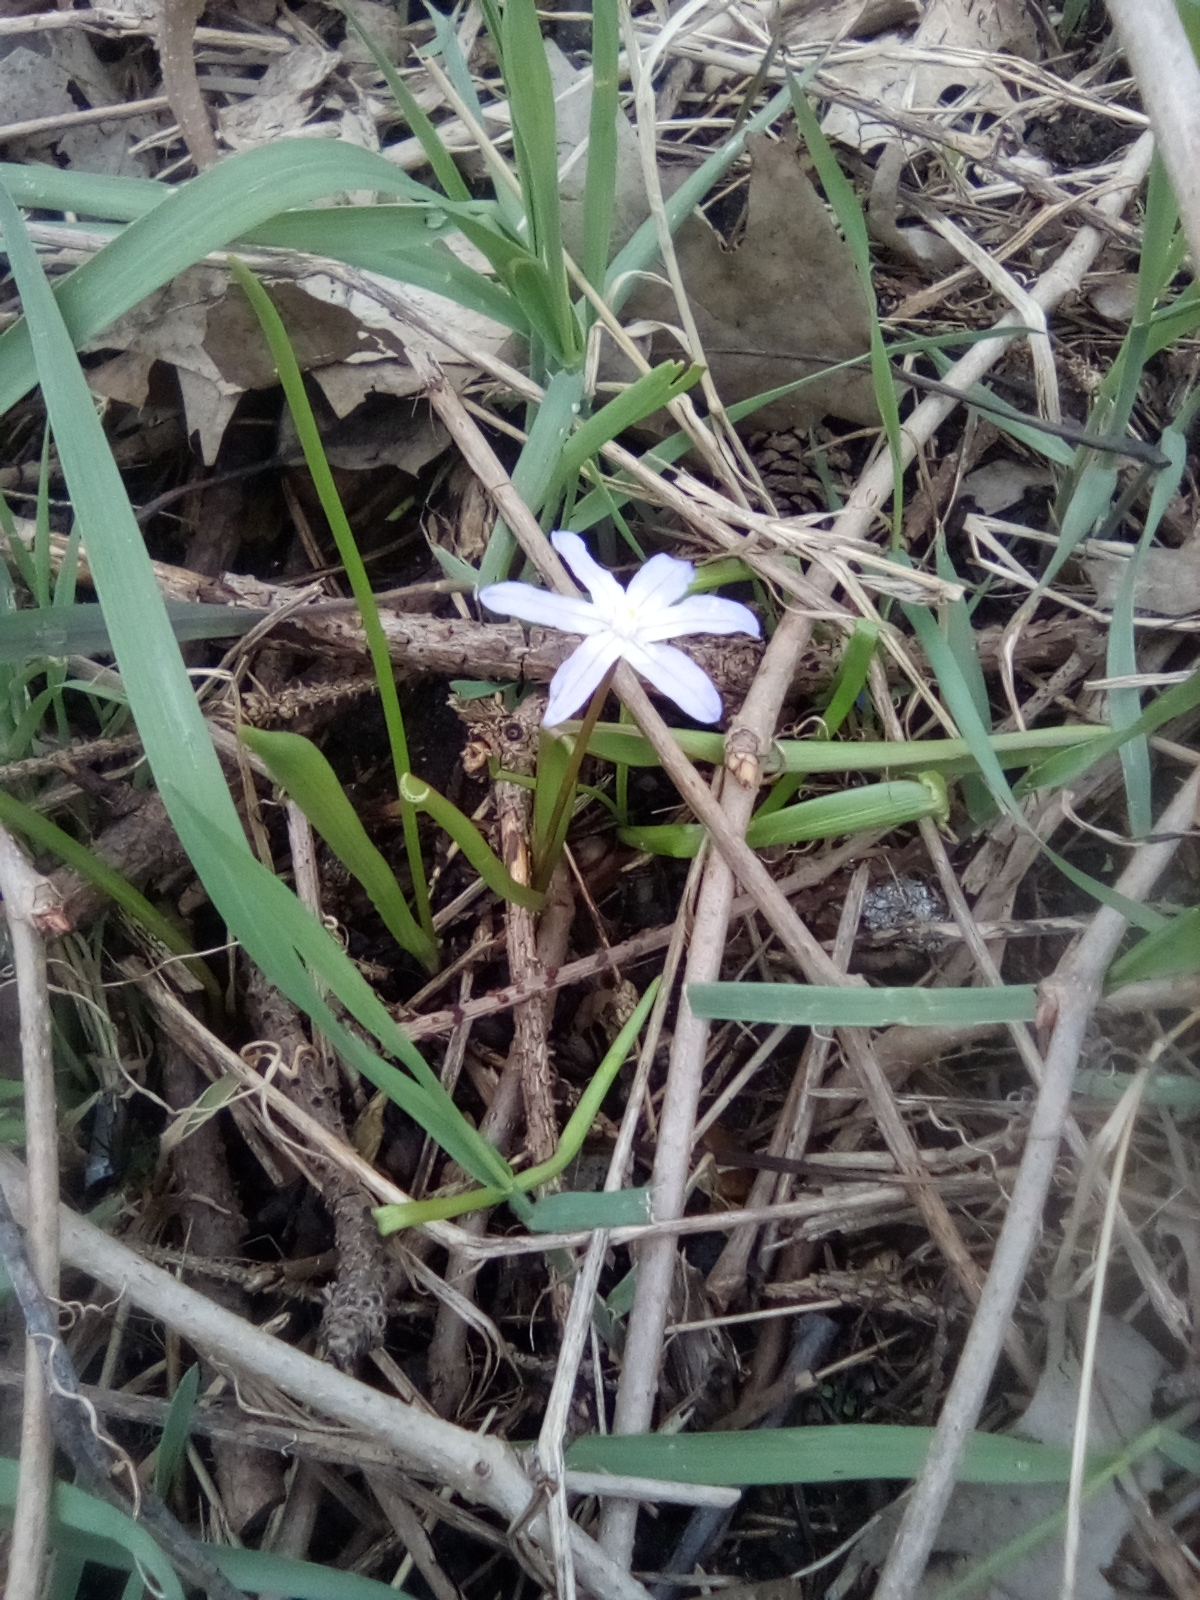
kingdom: Plantae
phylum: Tracheophyta
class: Liliopsida
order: Asparagales
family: Asparagaceae
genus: Scilla
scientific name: Scilla luciliae
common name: Boissier's glory-of-the-snow
